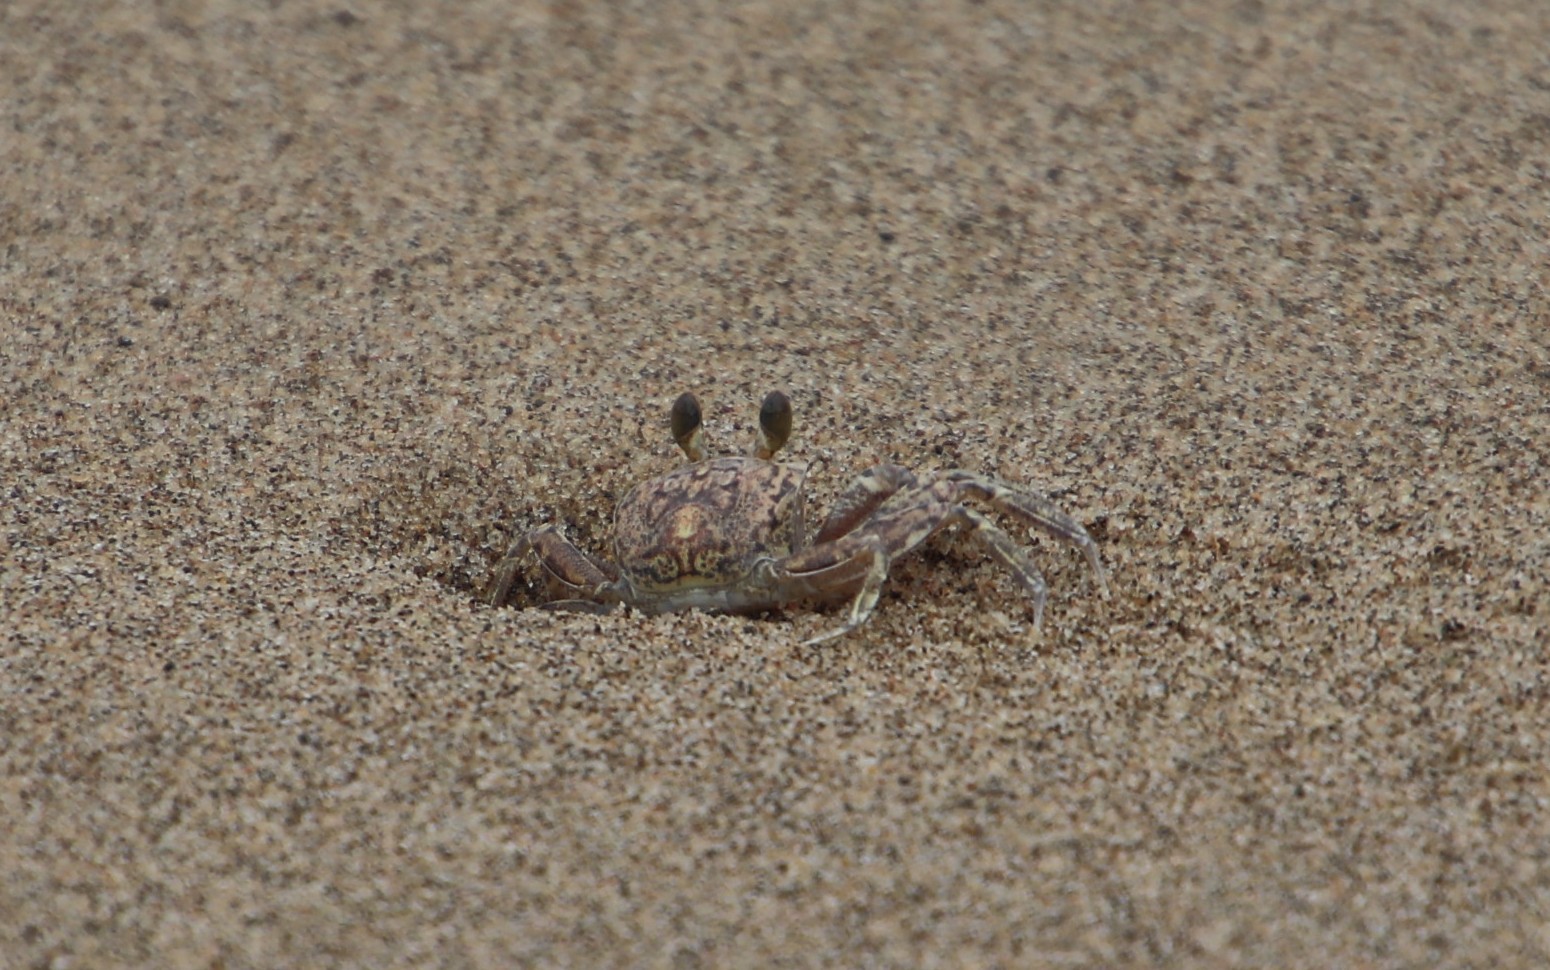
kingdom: Animalia
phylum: Arthropoda
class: Malacostraca
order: Decapoda
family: Ocypodidae
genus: Ocypode
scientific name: Ocypode
